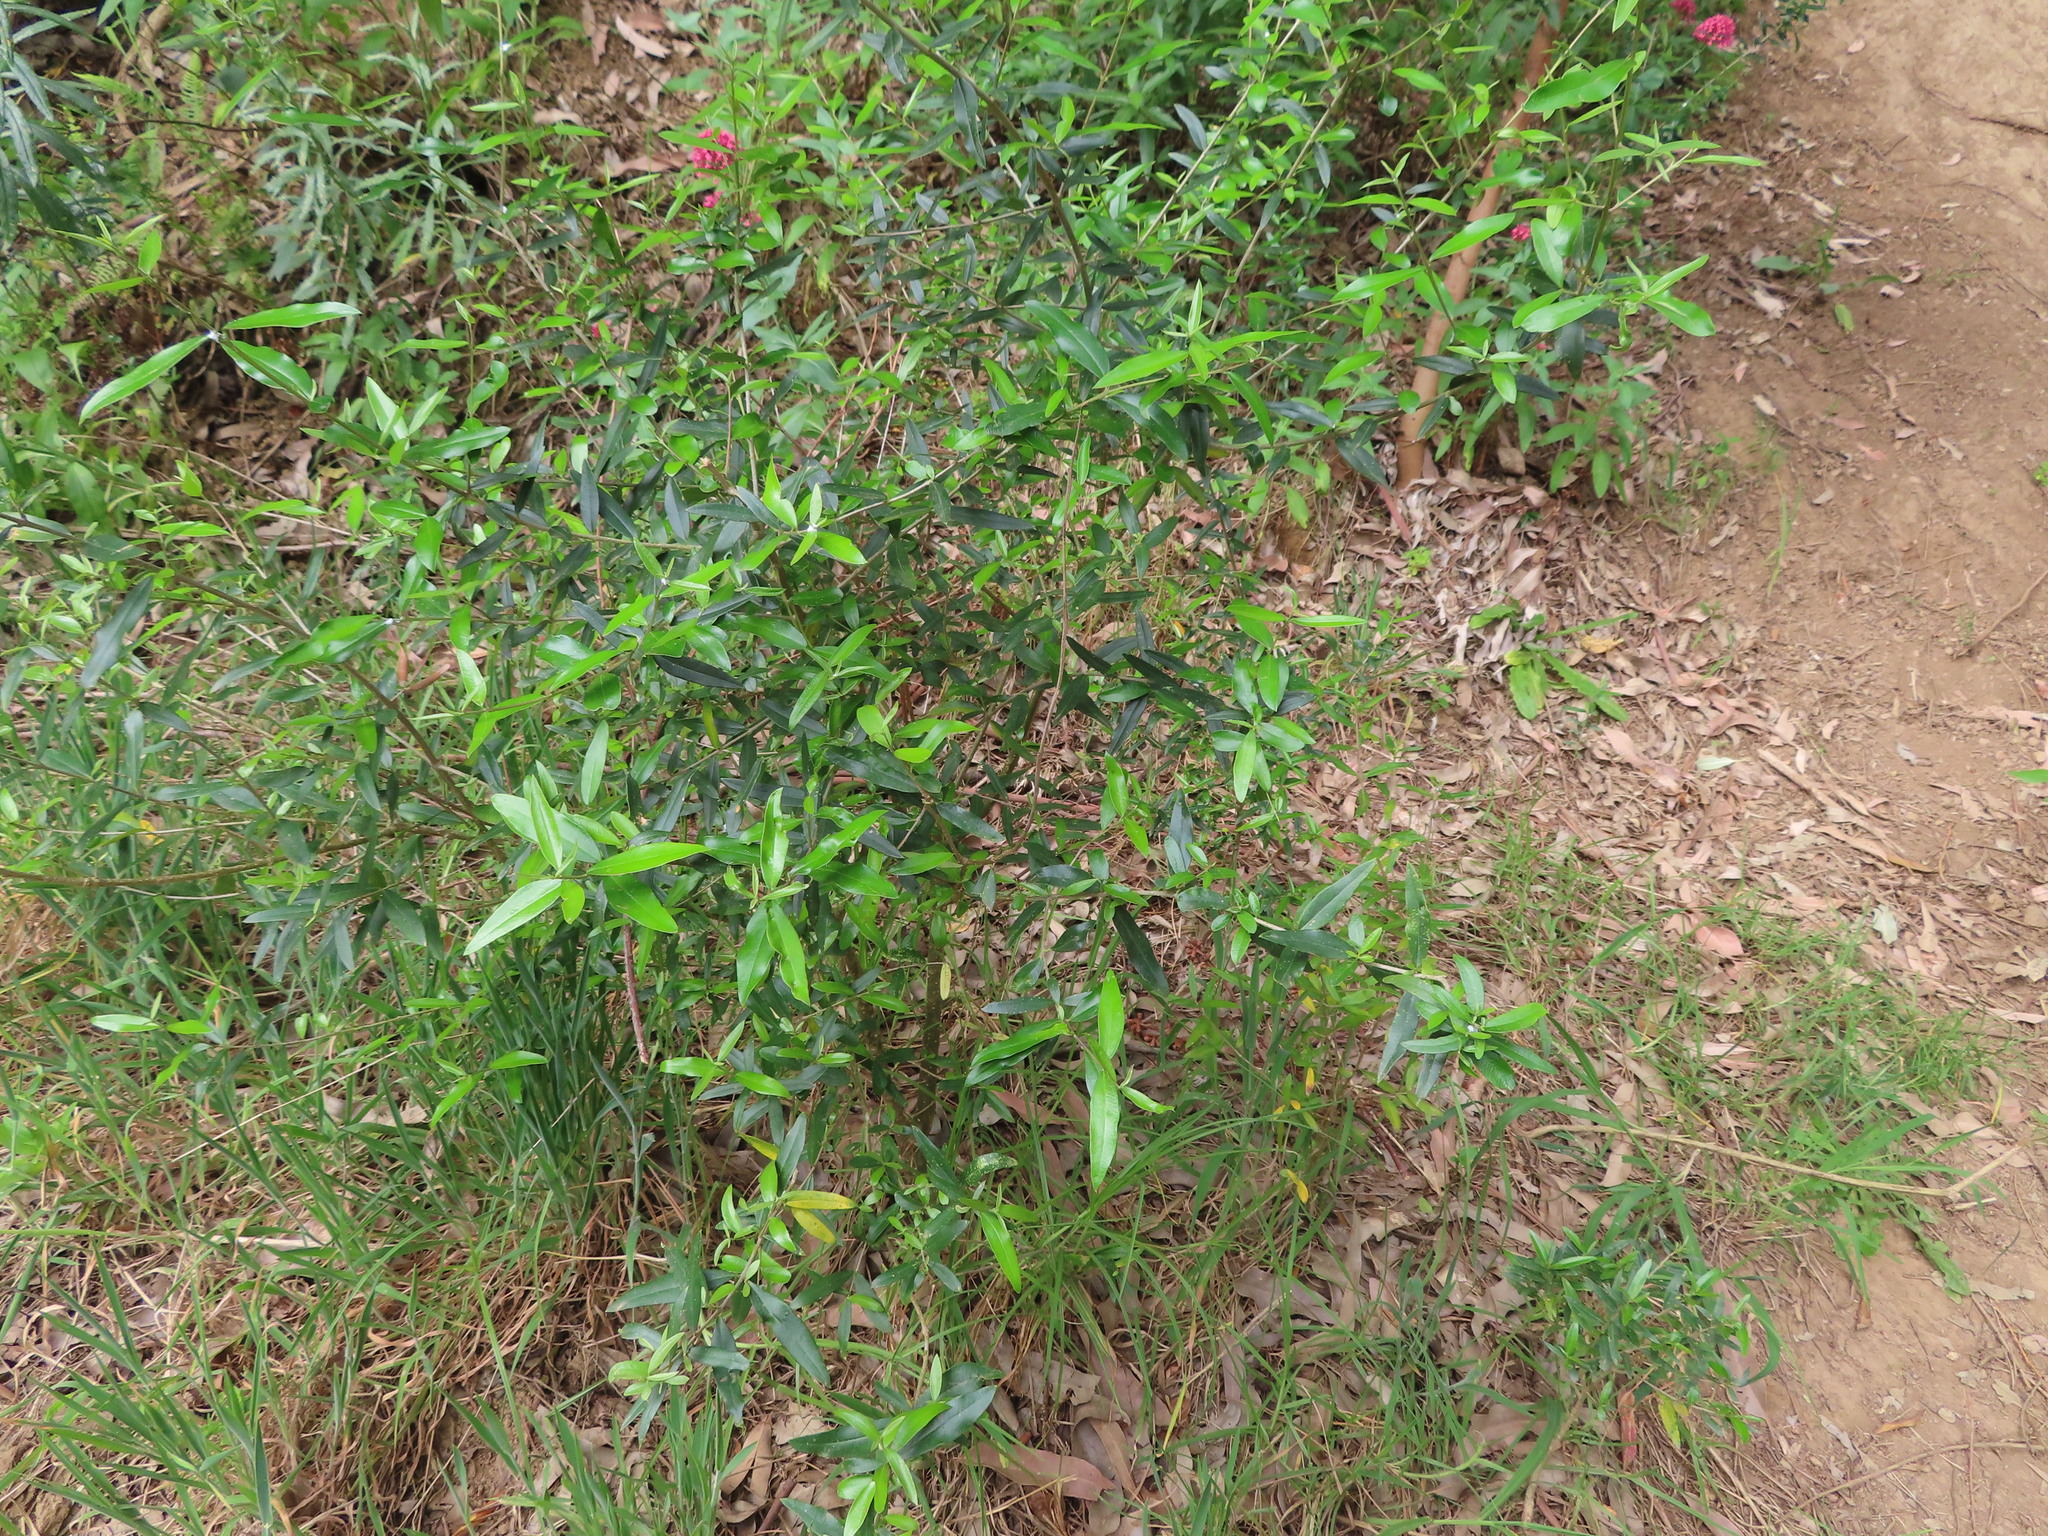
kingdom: Plantae
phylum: Tracheophyta
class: Magnoliopsida
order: Lamiales
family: Oleaceae
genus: Olea
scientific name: Olea europaea
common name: Olive
